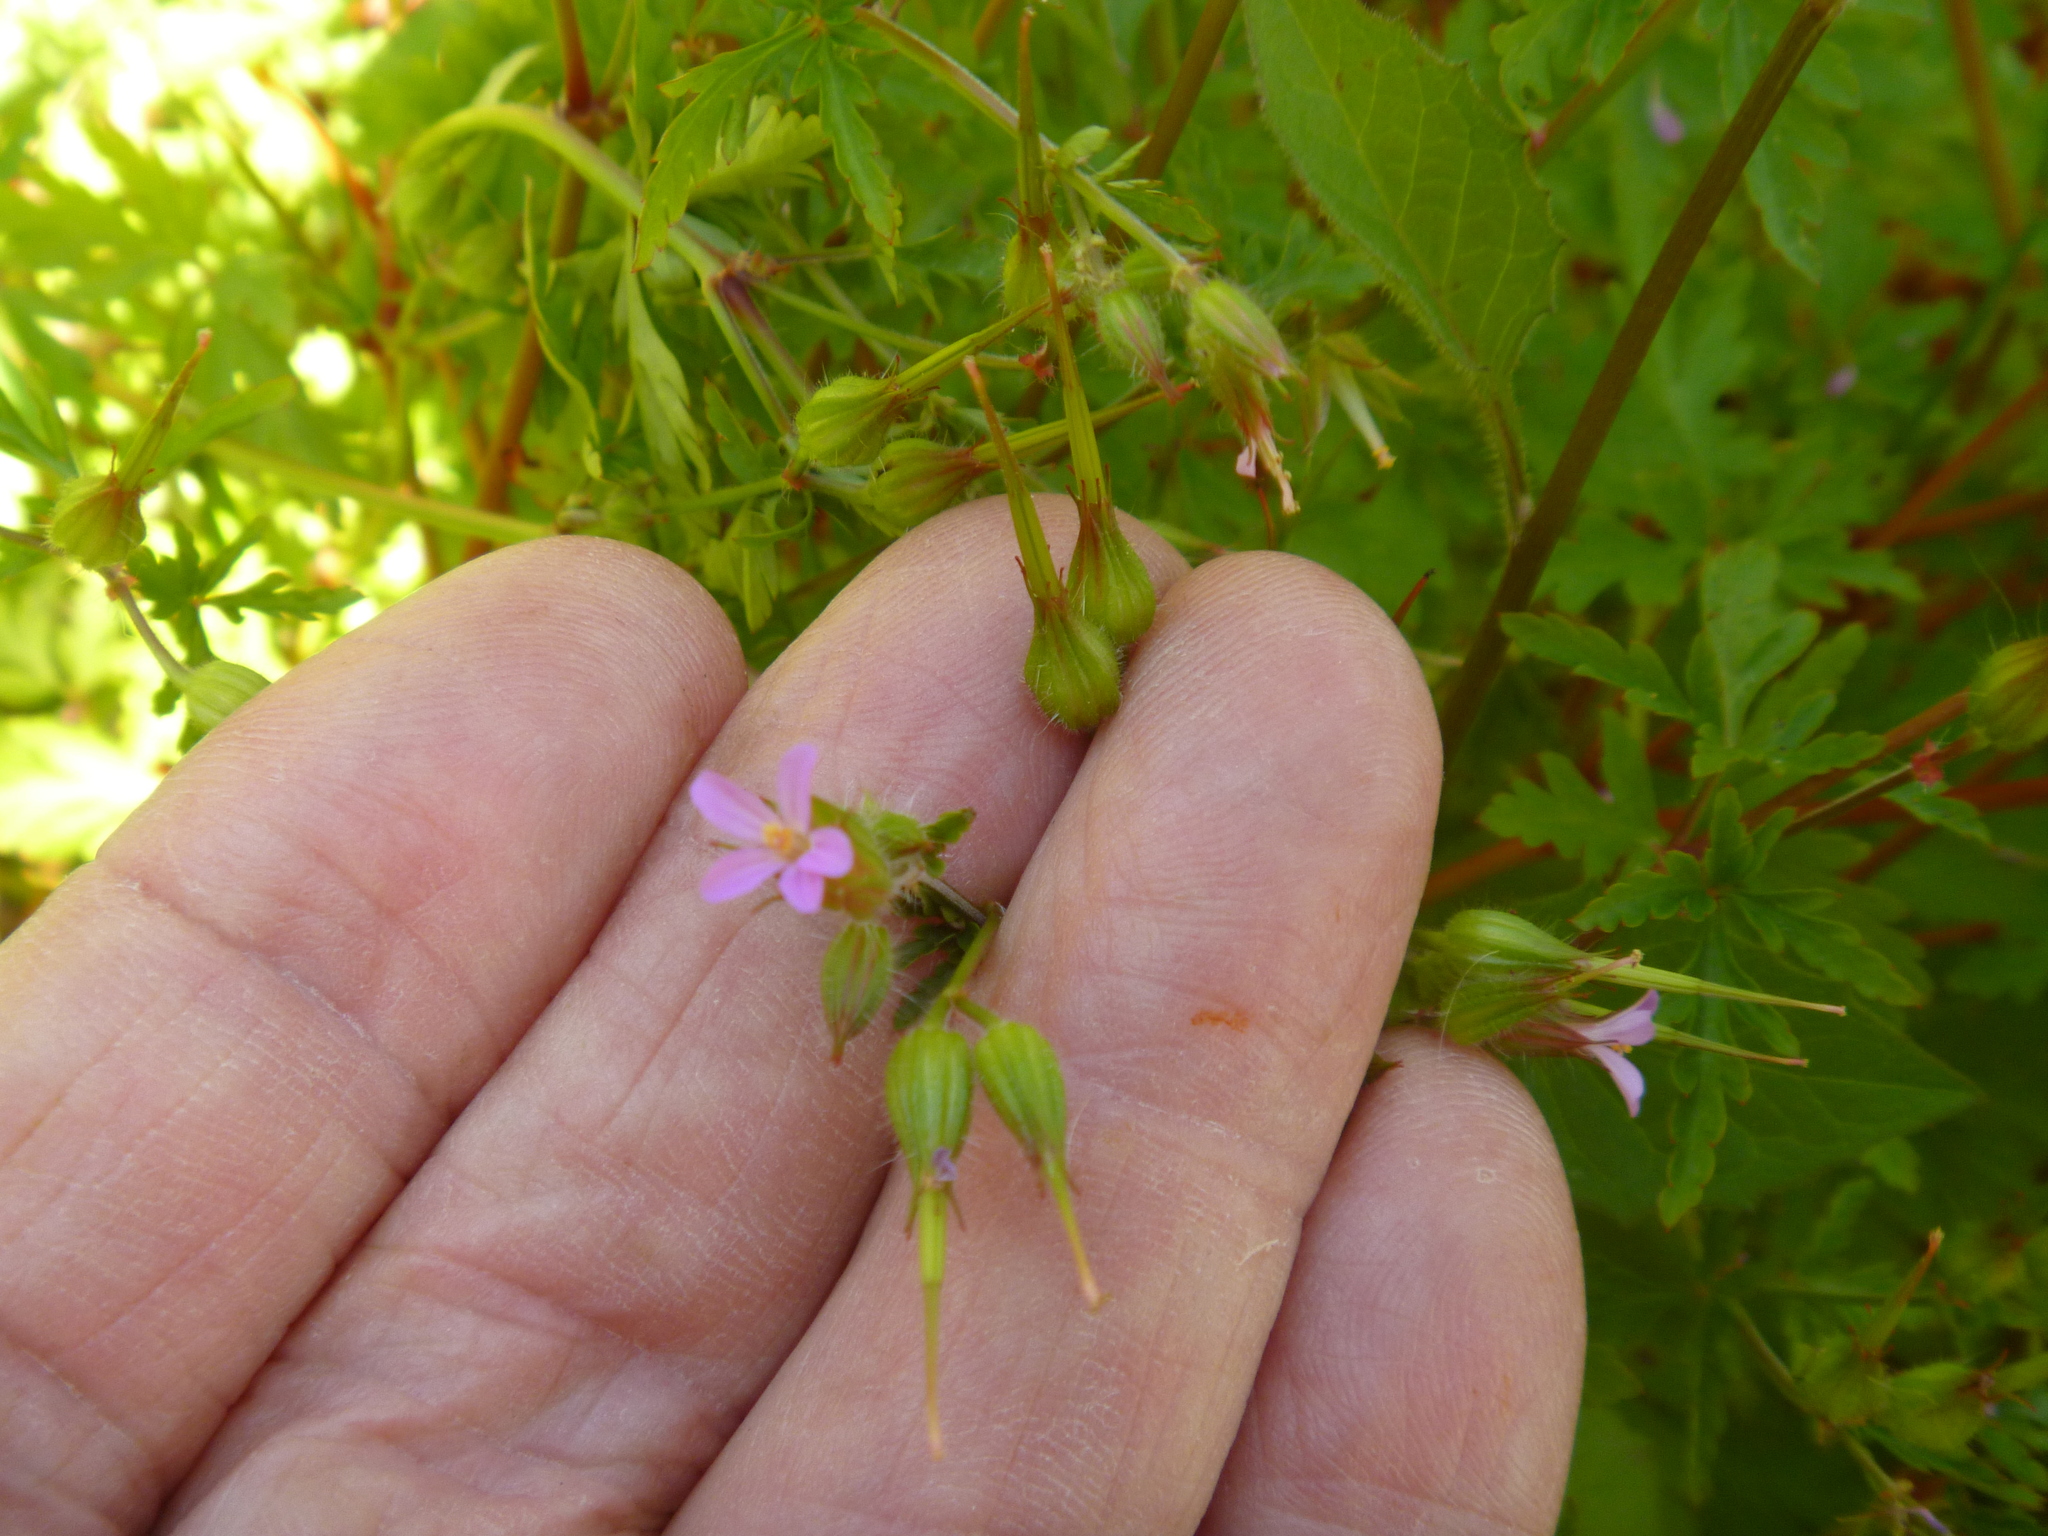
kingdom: Plantae
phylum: Tracheophyta
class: Magnoliopsida
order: Geraniales
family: Geraniaceae
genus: Geranium
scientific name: Geranium purpureum
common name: Little-robin
